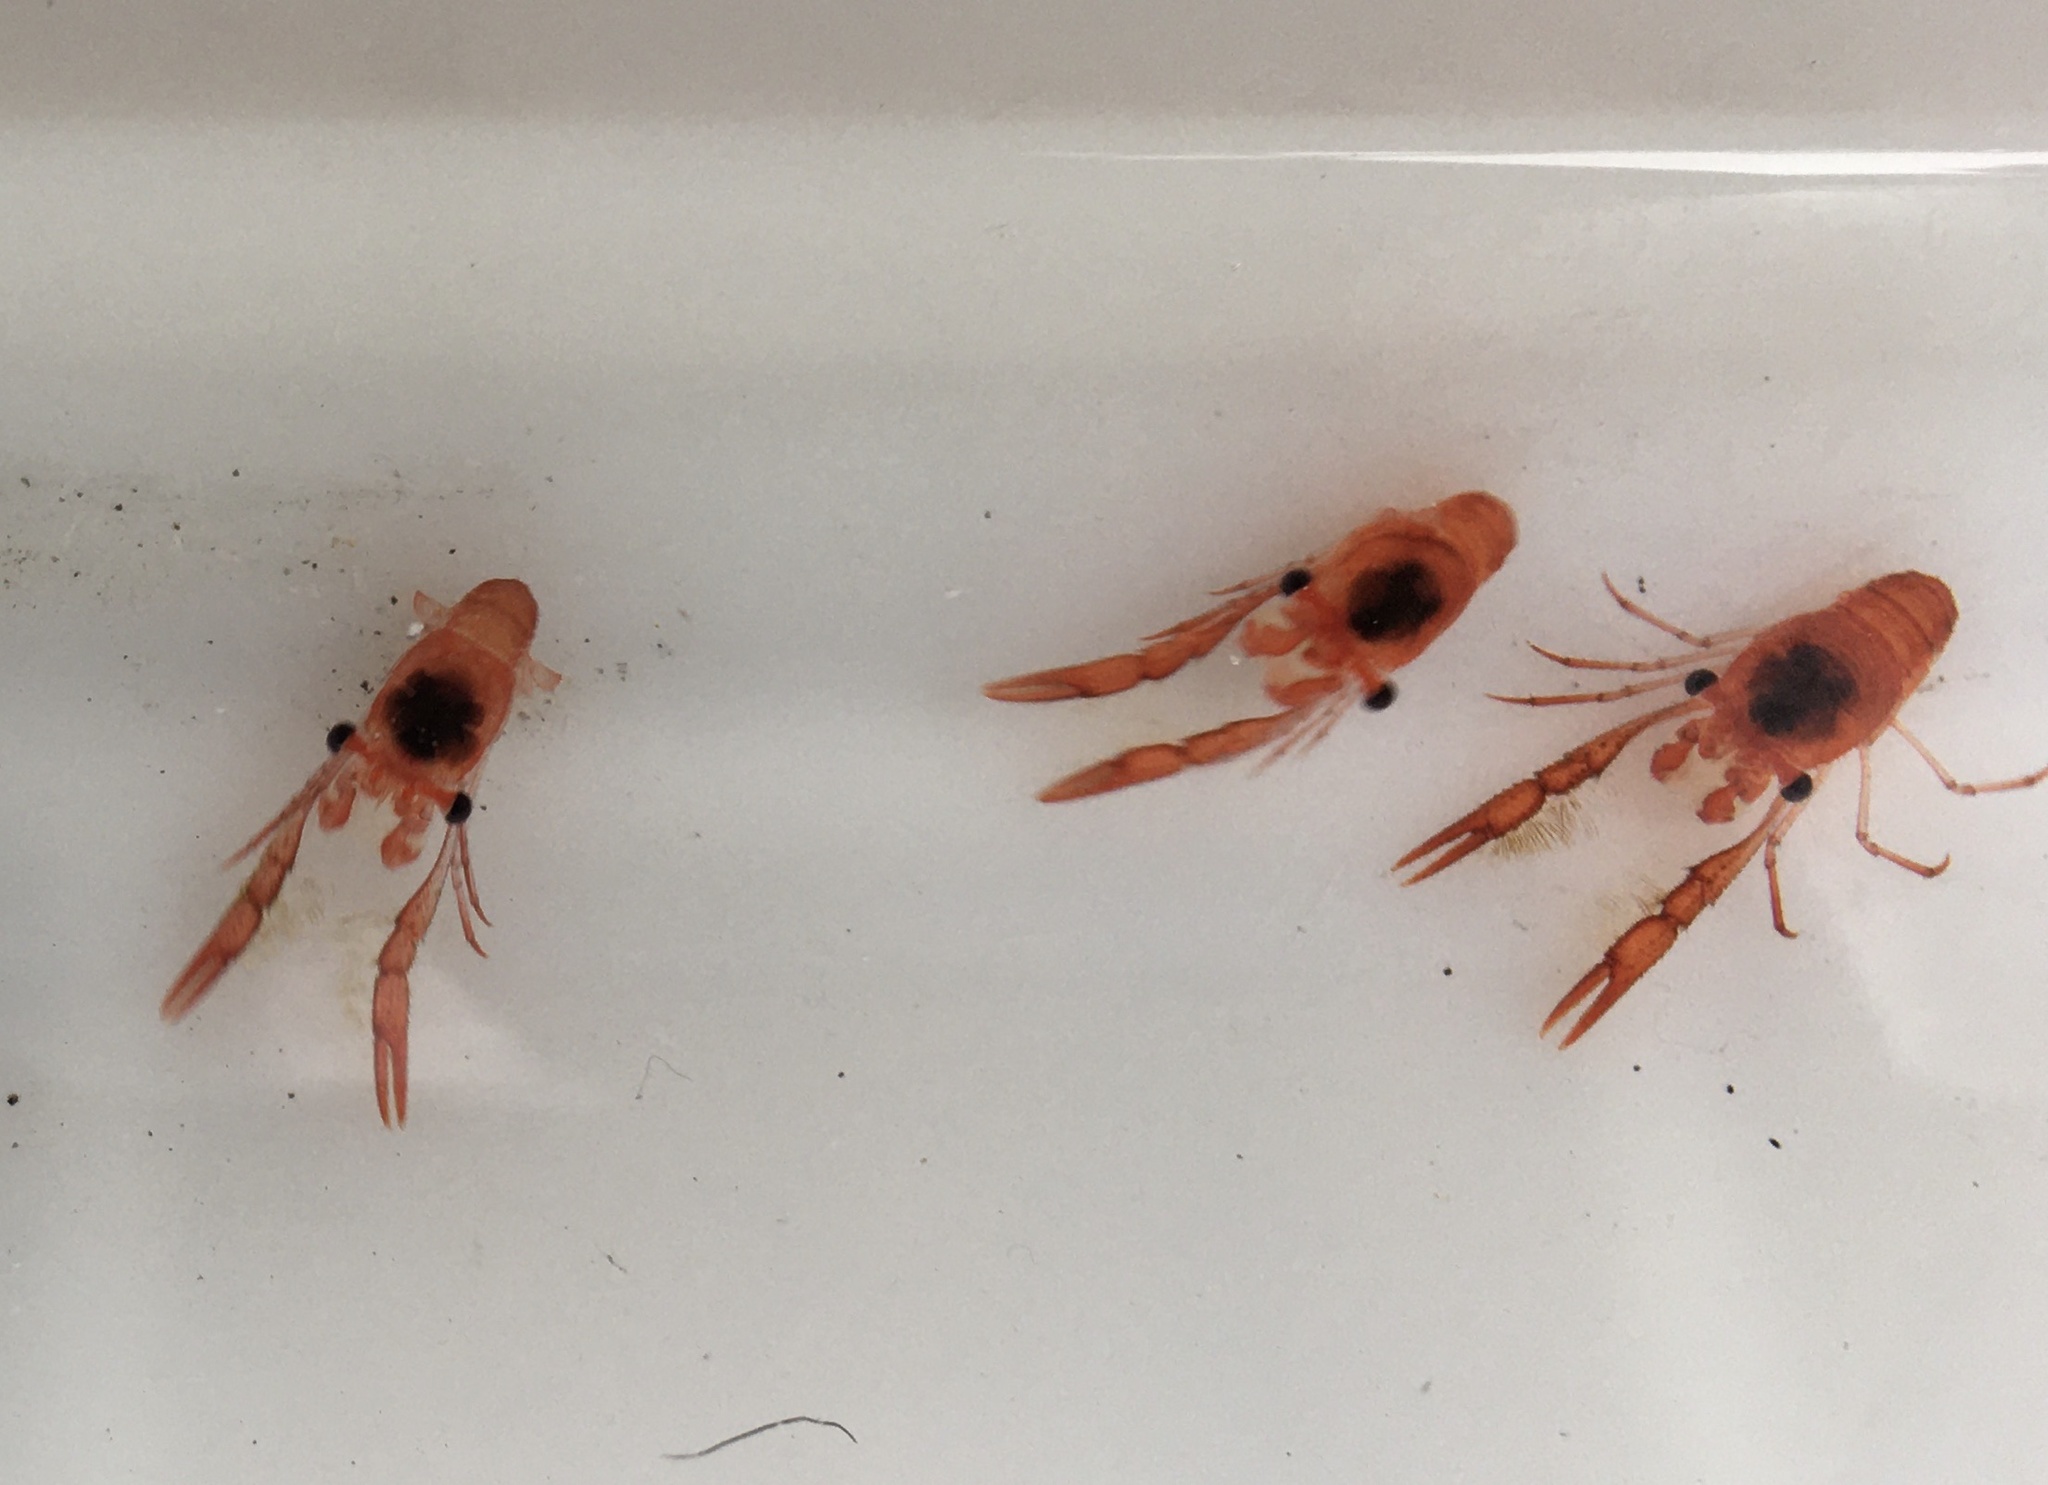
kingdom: Animalia
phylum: Arthropoda
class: Malacostraca
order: Decapoda
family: Munididae
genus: Grimothea
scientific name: Grimothea gregaria
